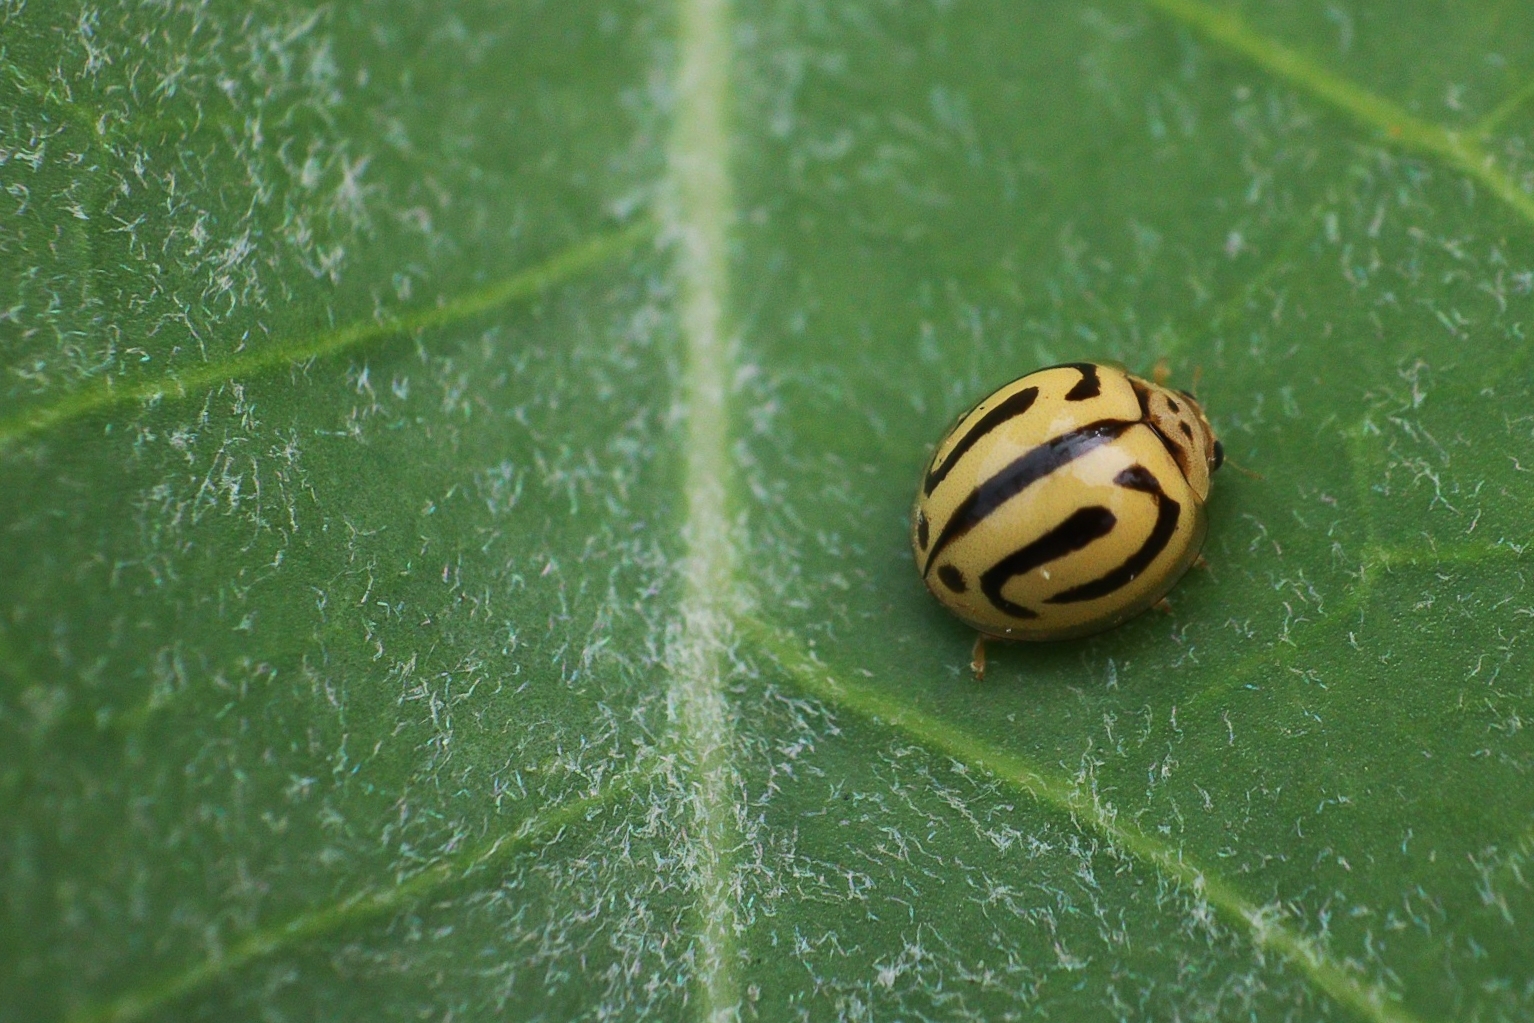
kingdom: Animalia
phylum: Arthropoda
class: Insecta
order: Coleoptera
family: Coccinellidae
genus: Anegleis
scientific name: Anegleis cardoni
